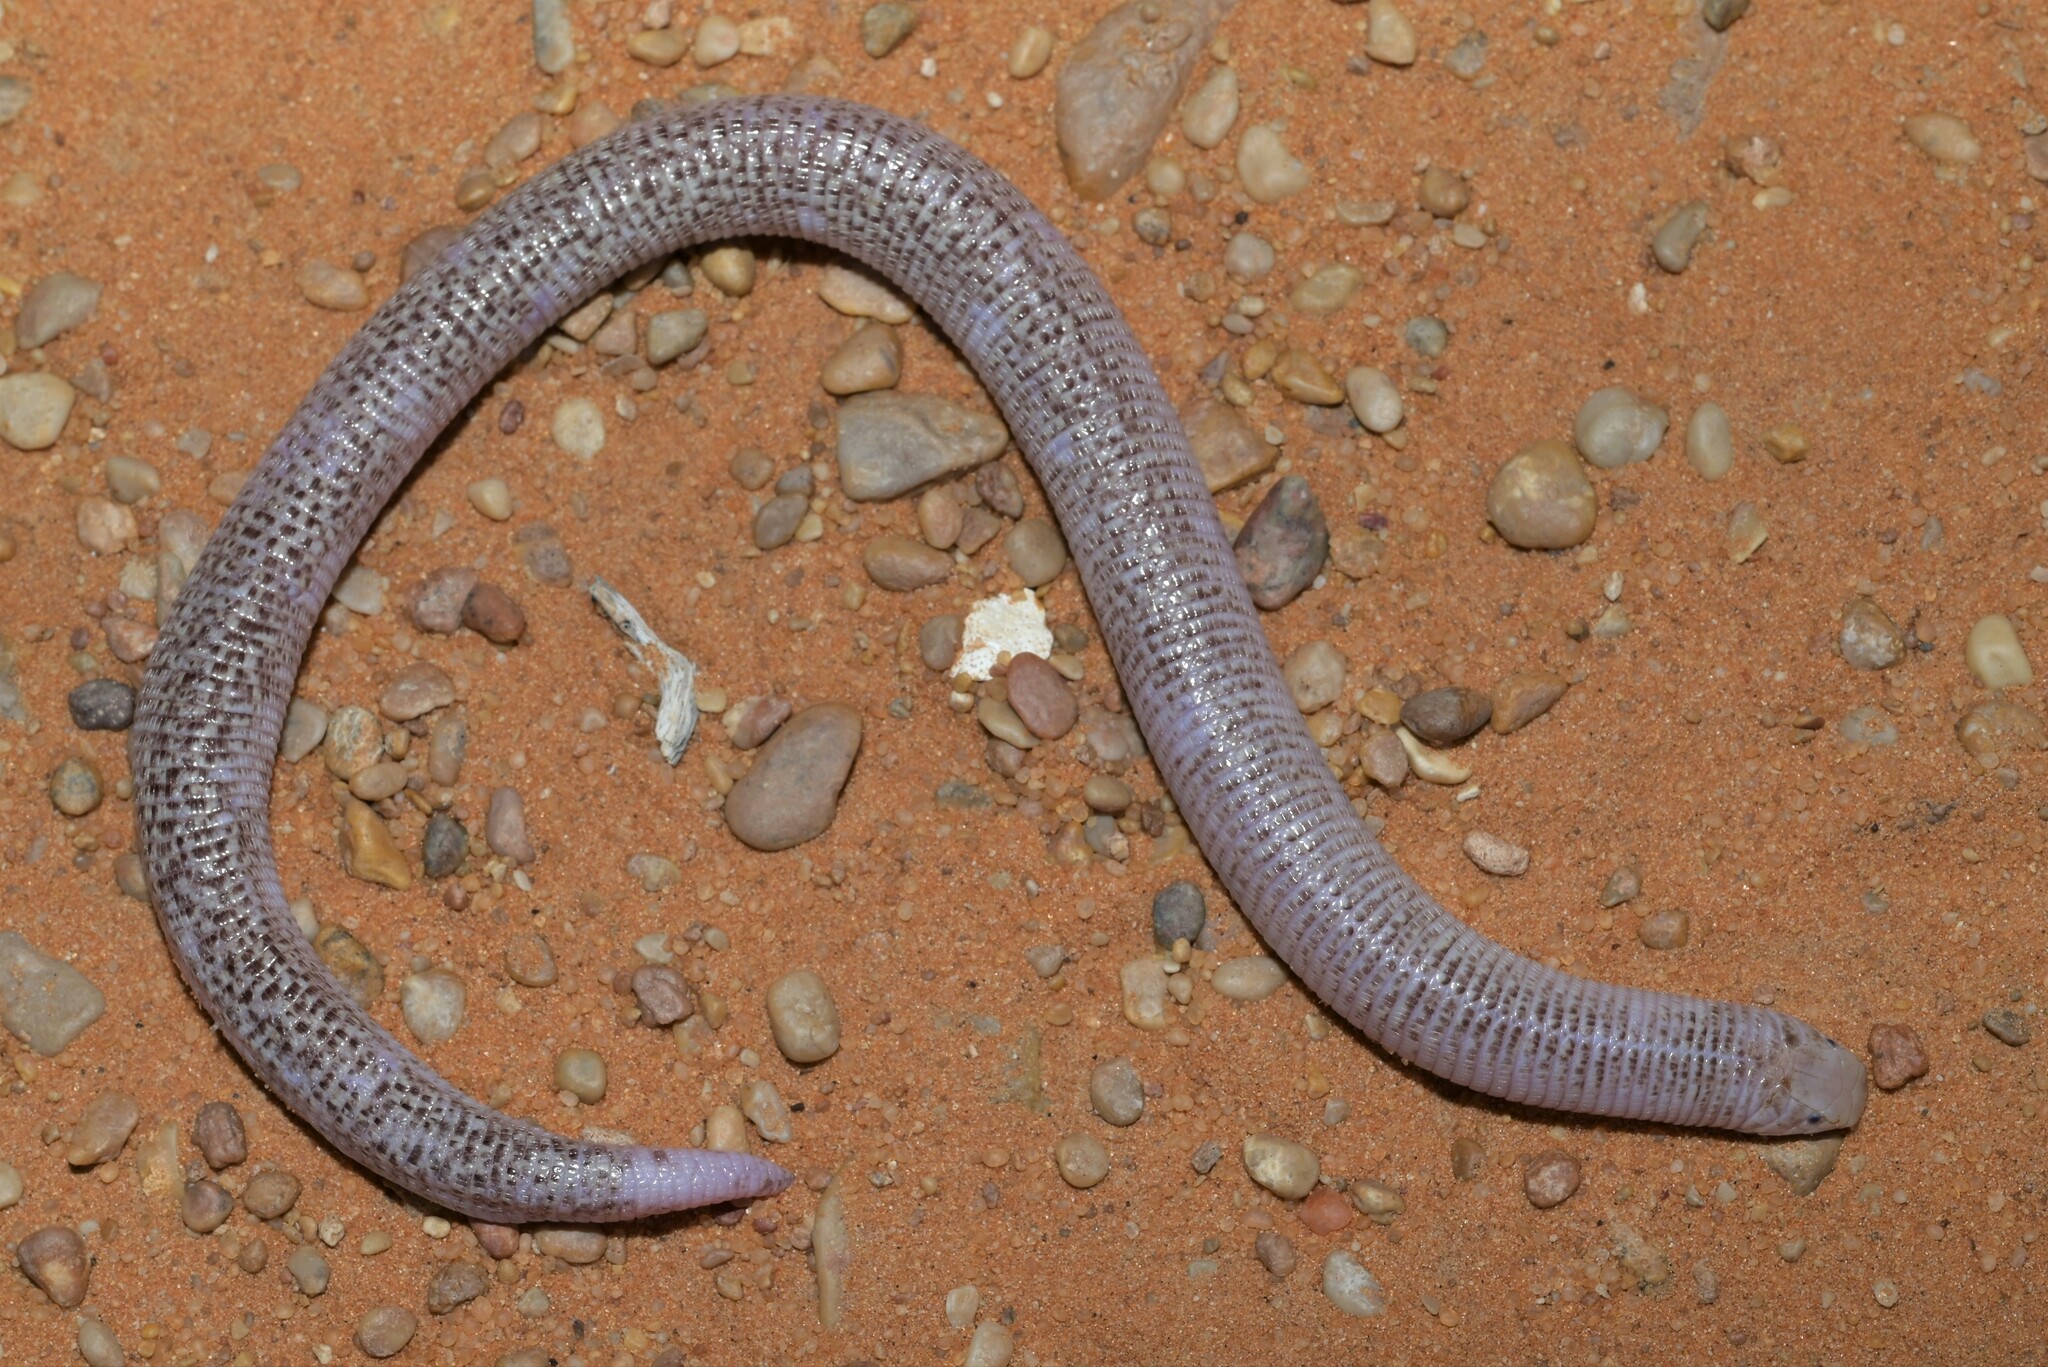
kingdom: Animalia
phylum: Chordata
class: Squamata
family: Trogonophidae
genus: Diplometopon
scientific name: Diplometopon zarudnyi
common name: Zarudnyi's worm lizard
